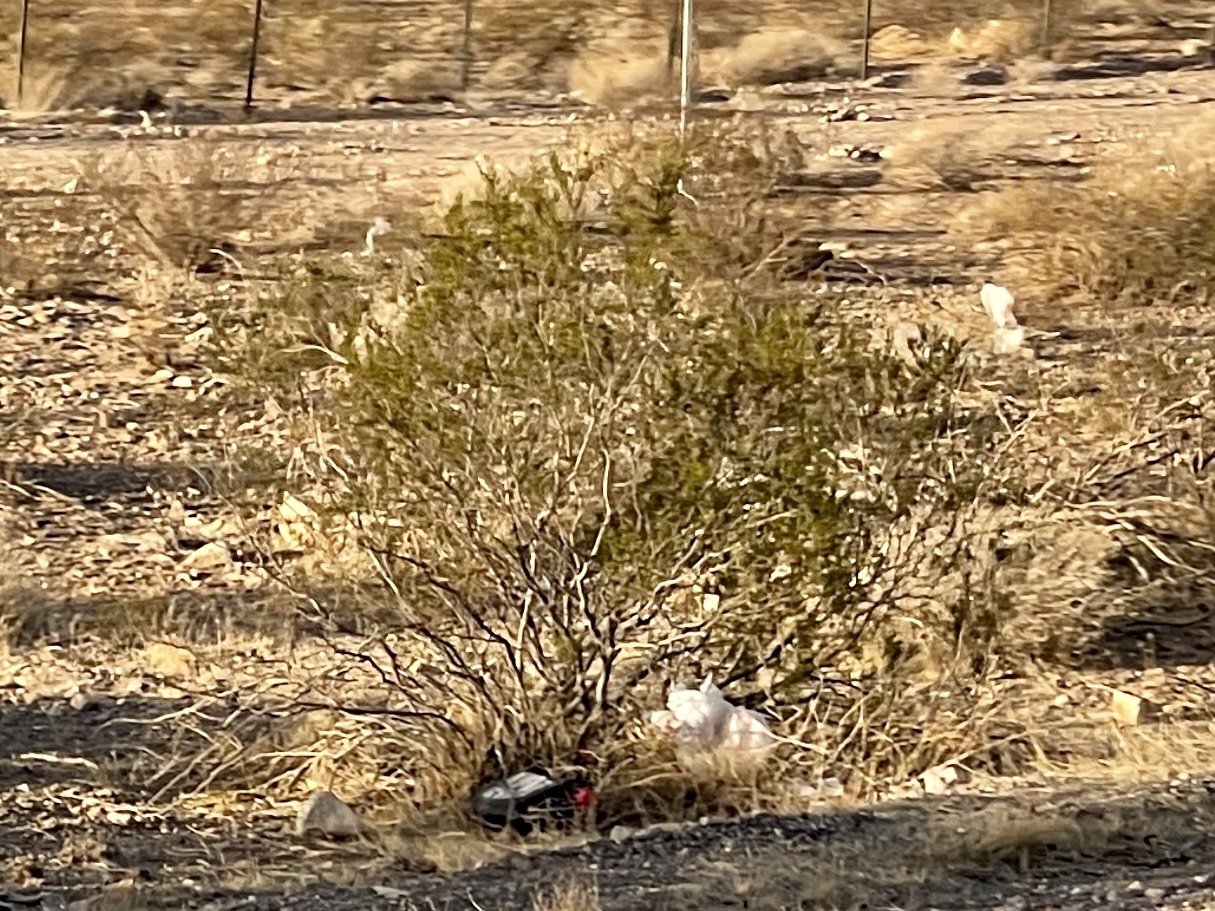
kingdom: Plantae
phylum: Tracheophyta
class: Magnoliopsida
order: Zygophyllales
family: Zygophyllaceae
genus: Larrea
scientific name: Larrea tridentata
